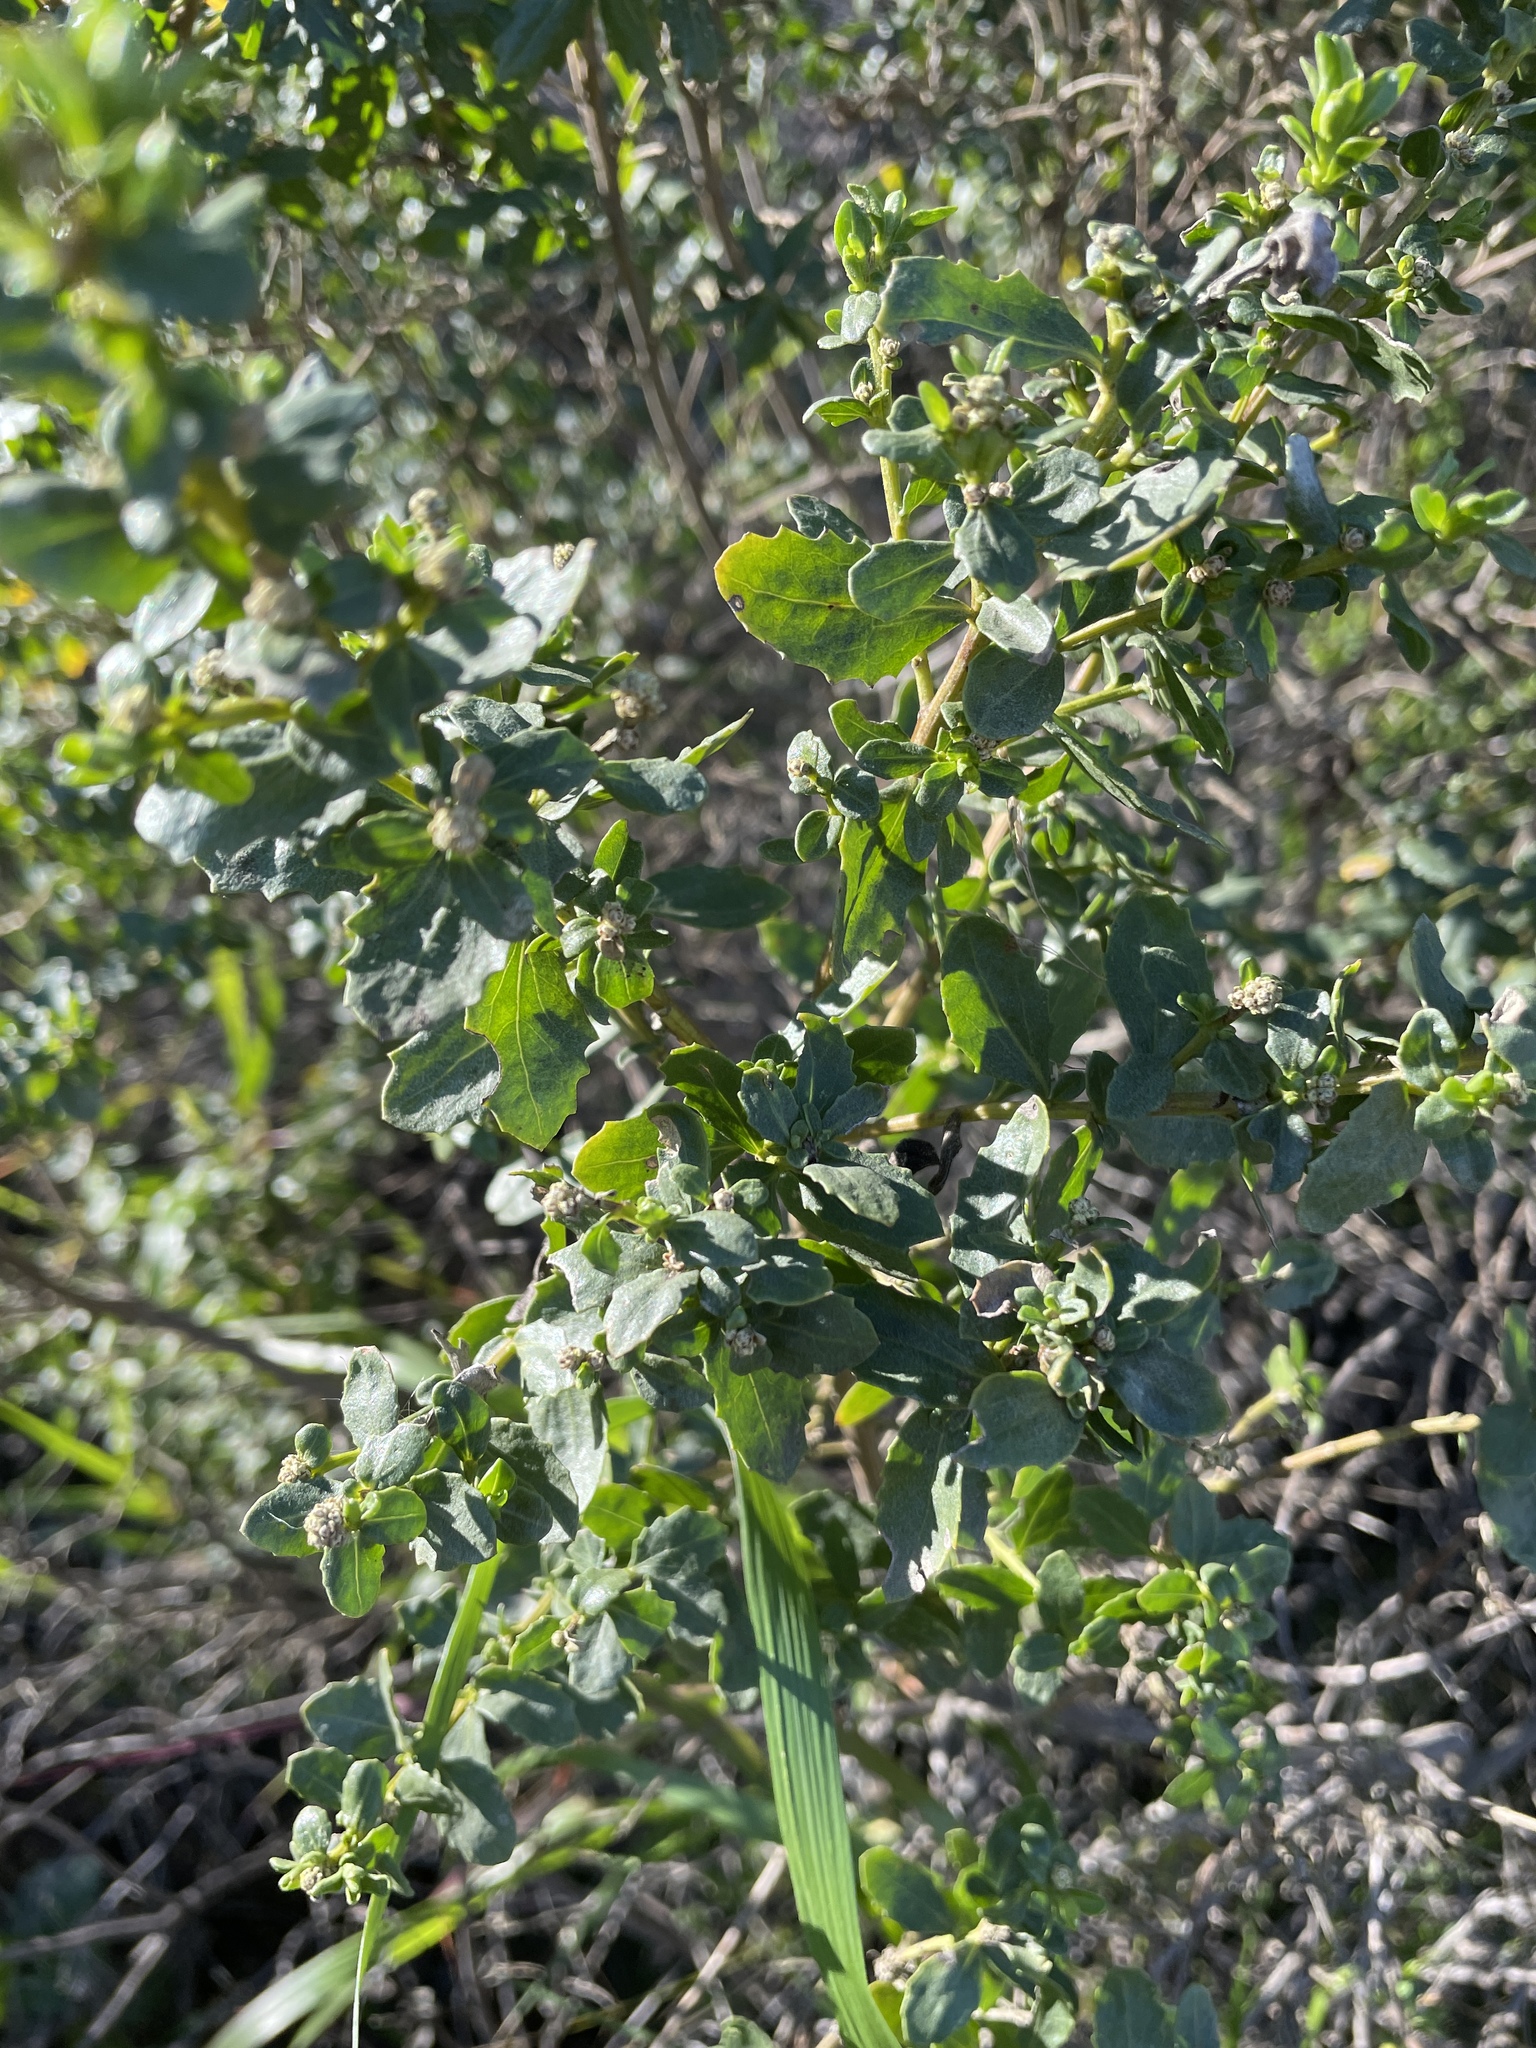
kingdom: Plantae
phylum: Tracheophyta
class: Magnoliopsida
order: Asterales
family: Asteraceae
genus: Baccharis
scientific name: Baccharis pilularis
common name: Coyotebrush
